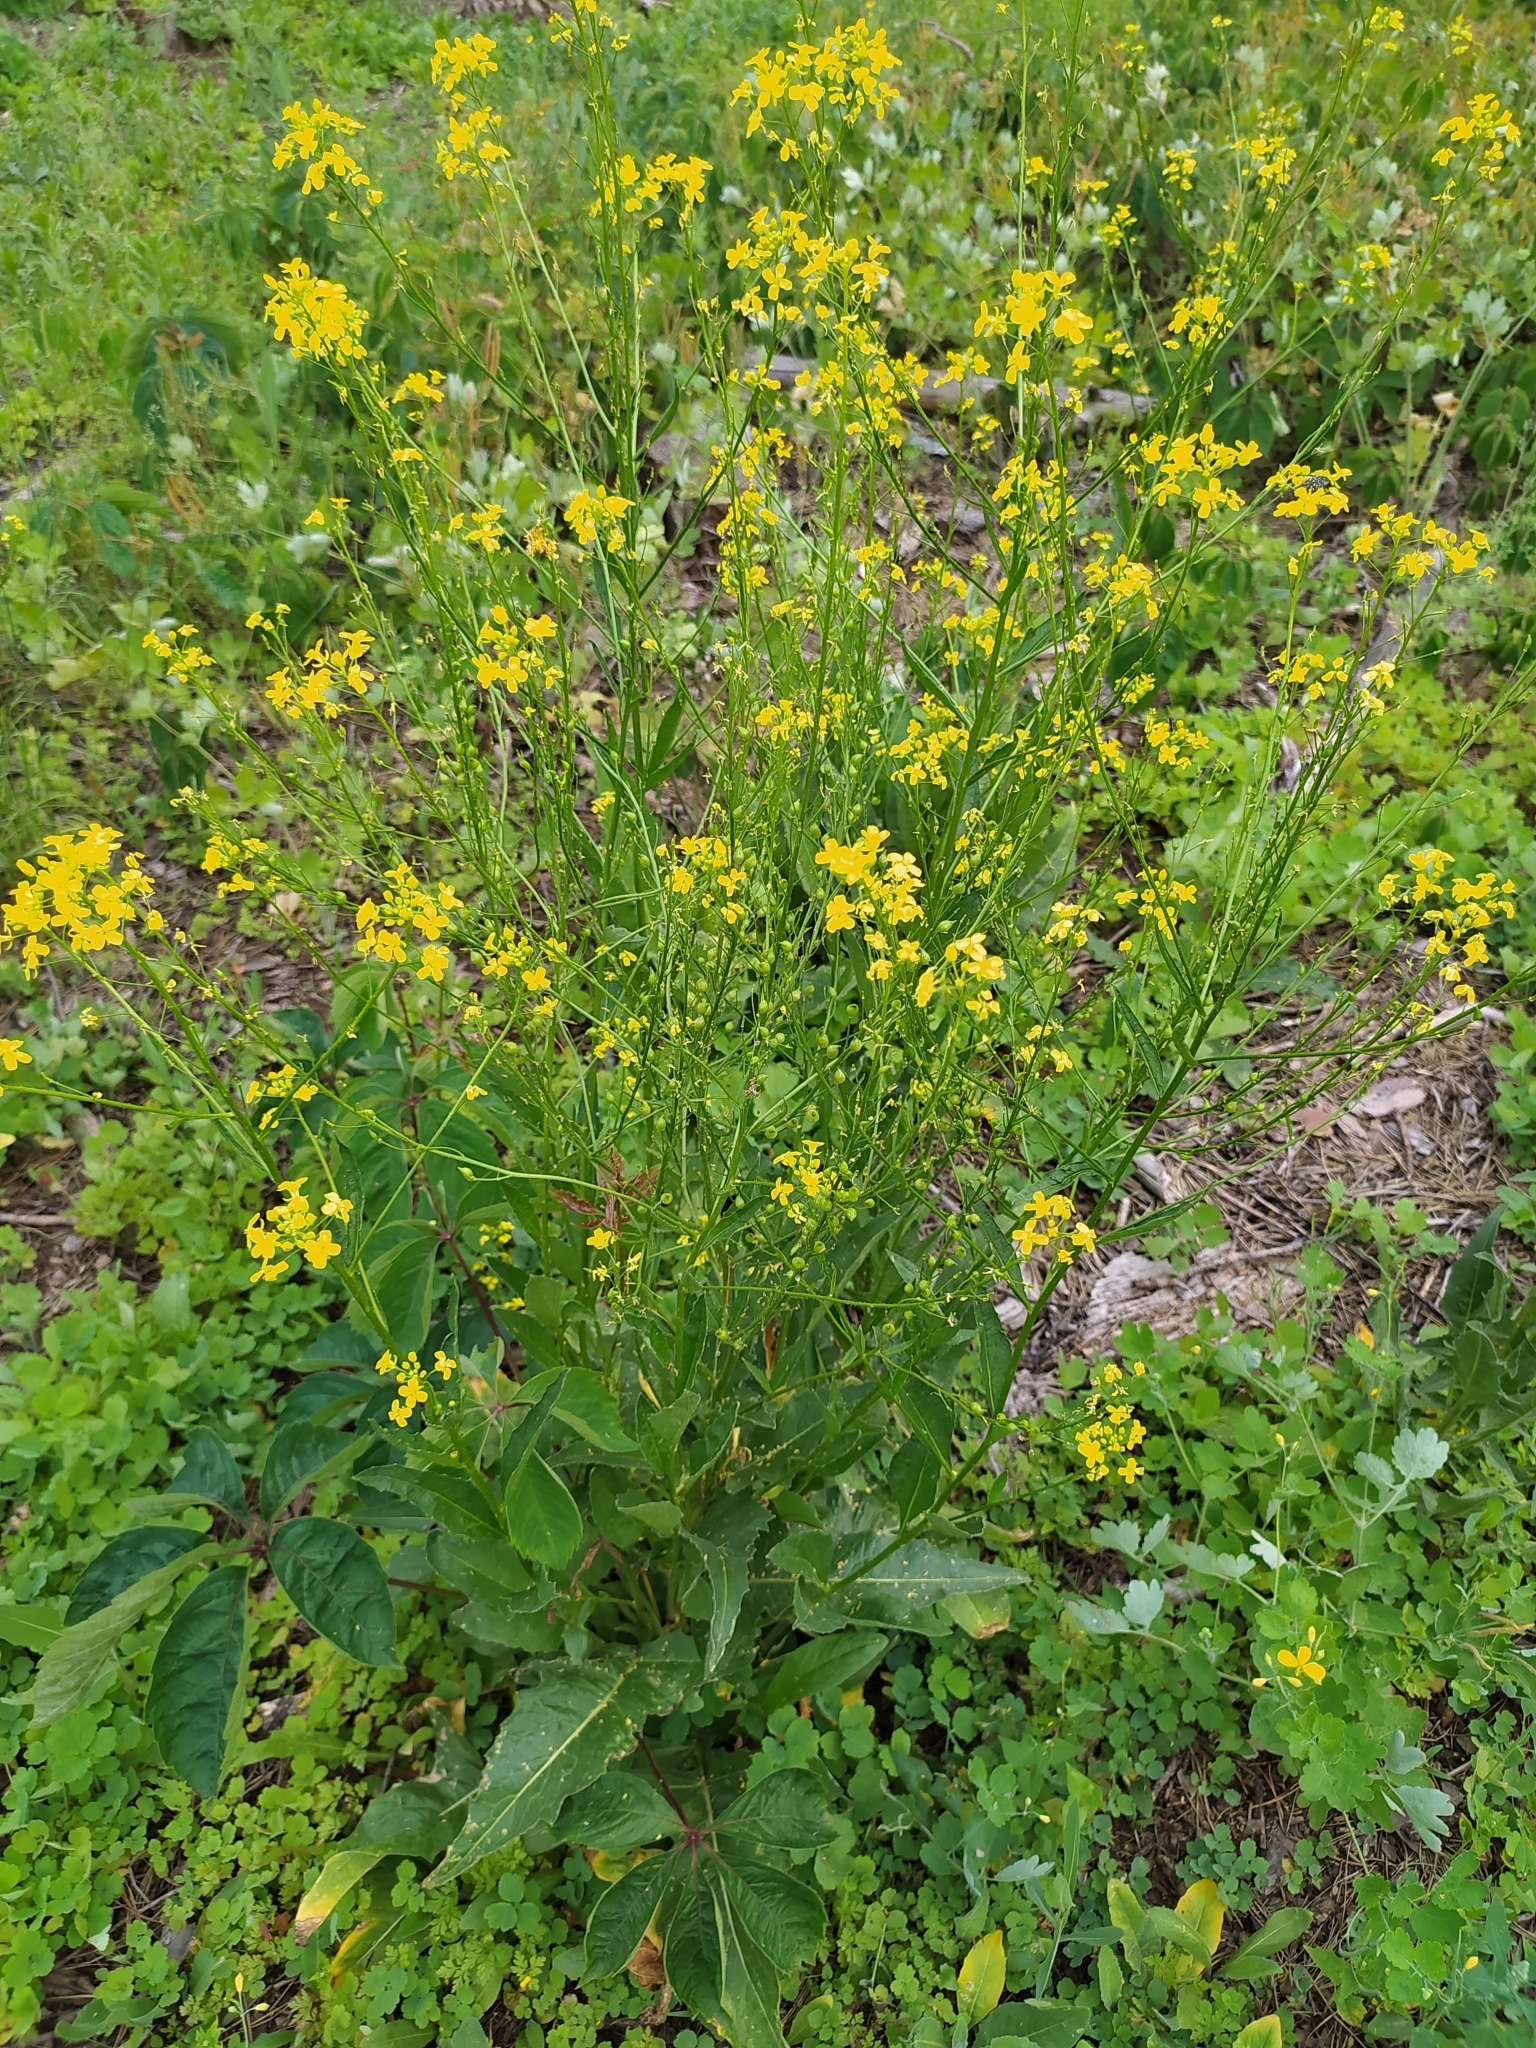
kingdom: Plantae
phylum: Tracheophyta
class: Magnoliopsida
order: Brassicales
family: Brassicaceae
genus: Bunias
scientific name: Bunias orientalis
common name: Warty-cabbage
